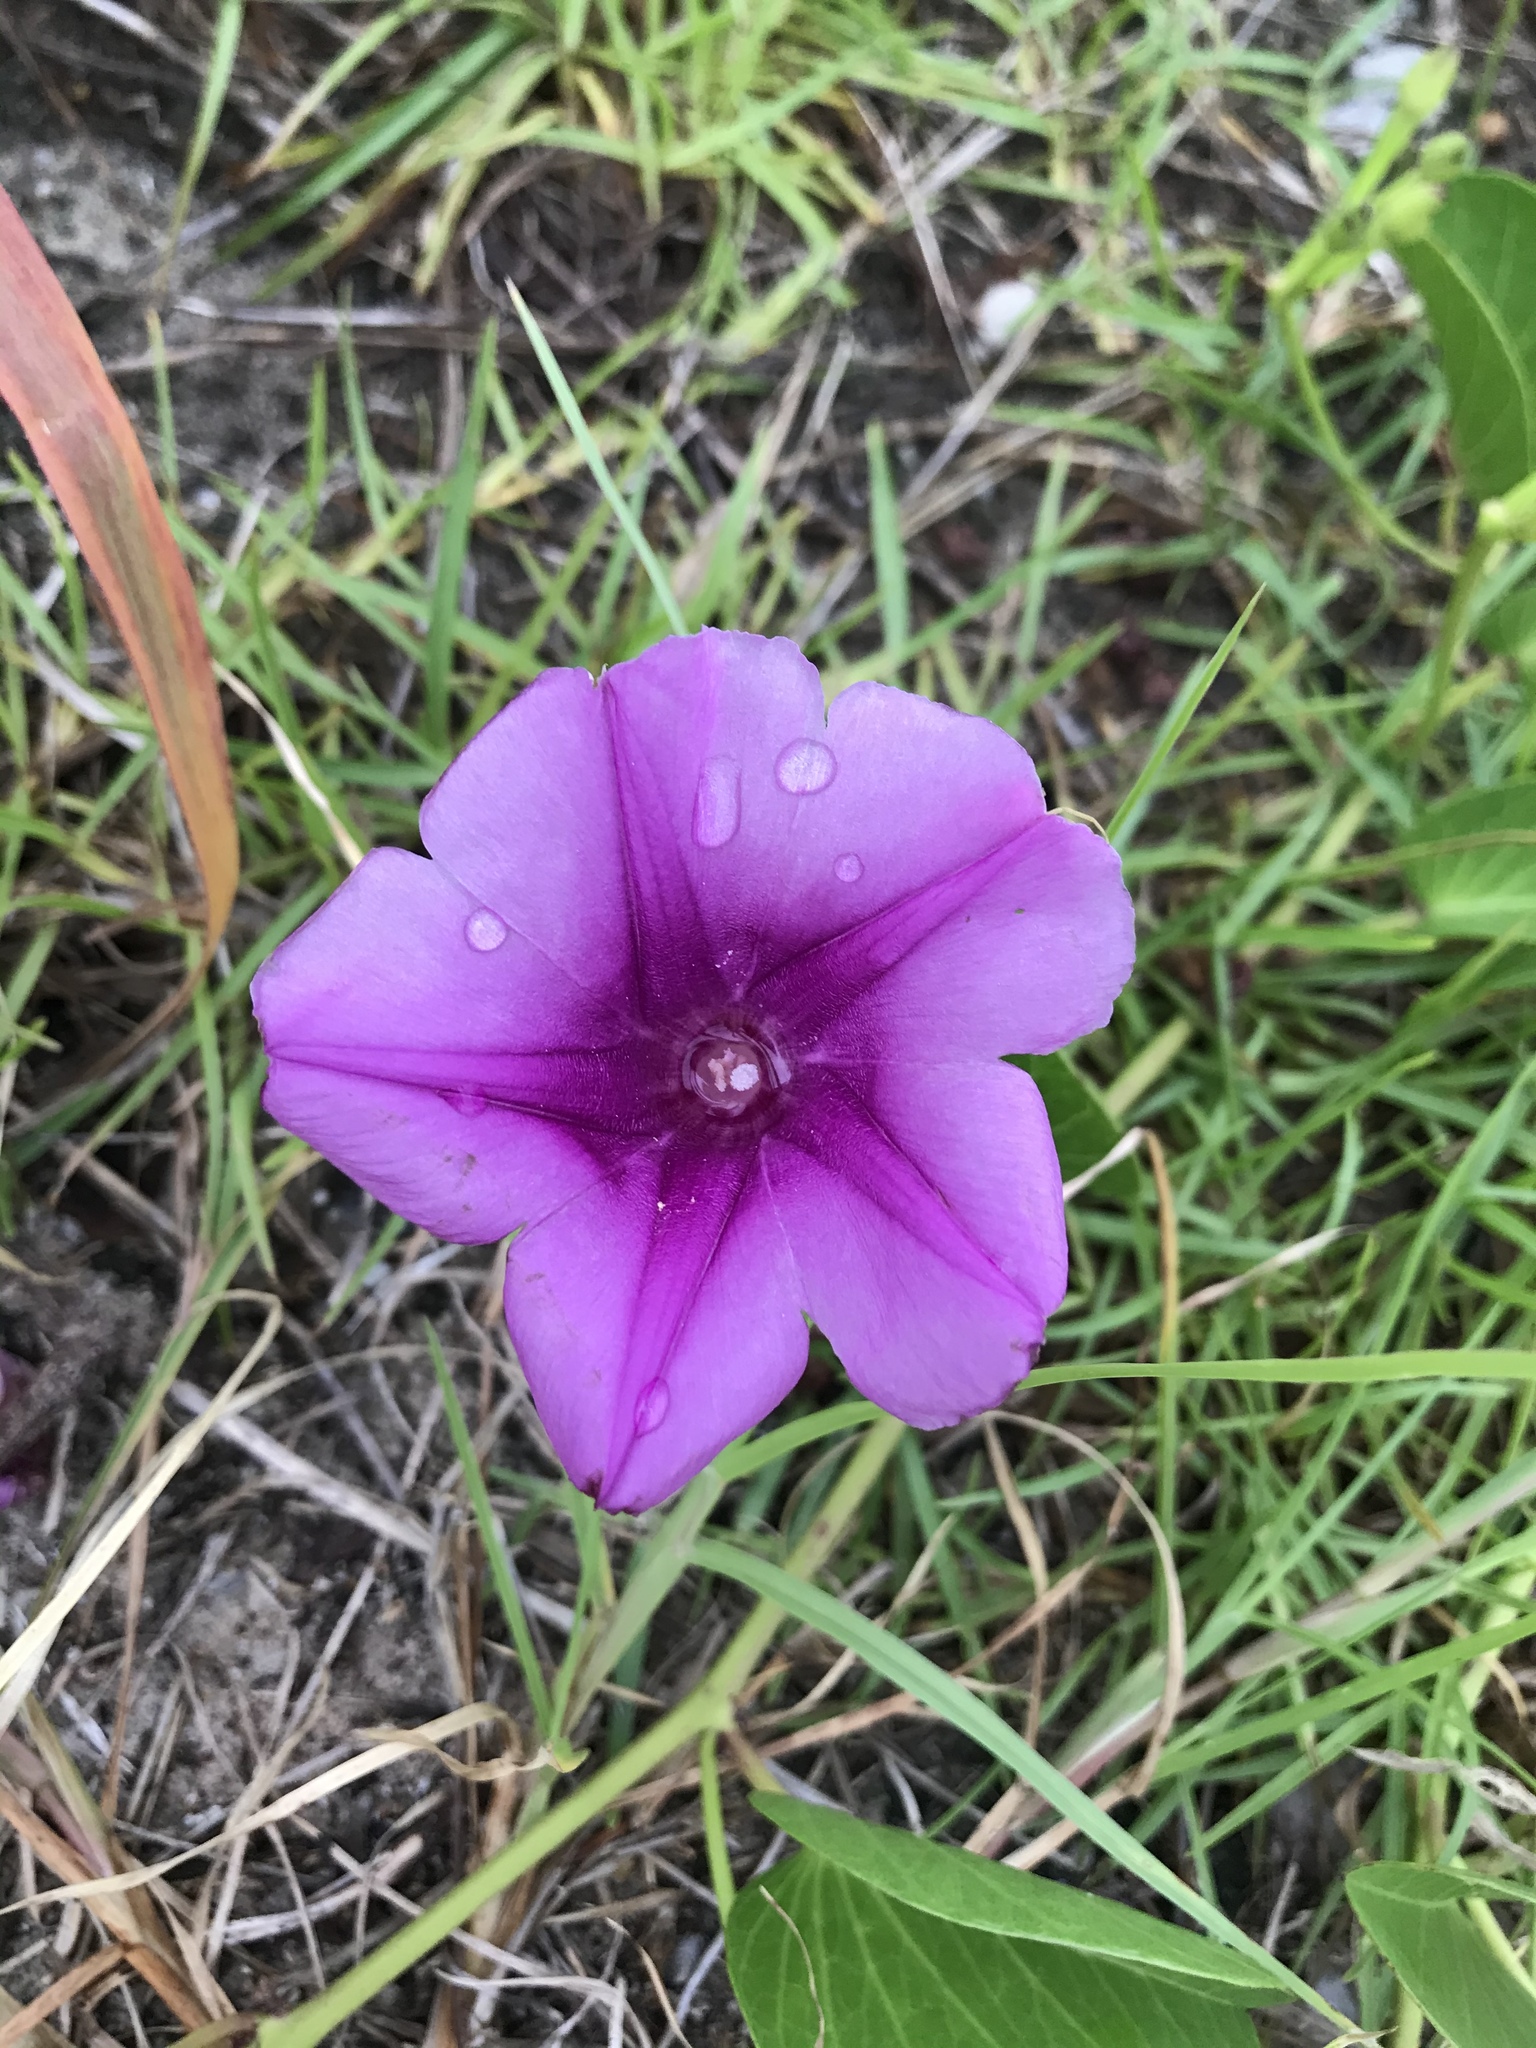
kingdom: Plantae
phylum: Tracheophyta
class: Magnoliopsida
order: Solanales
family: Convolvulaceae
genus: Ipomoea
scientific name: Ipomoea pes-caprae
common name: Beach morning glory
